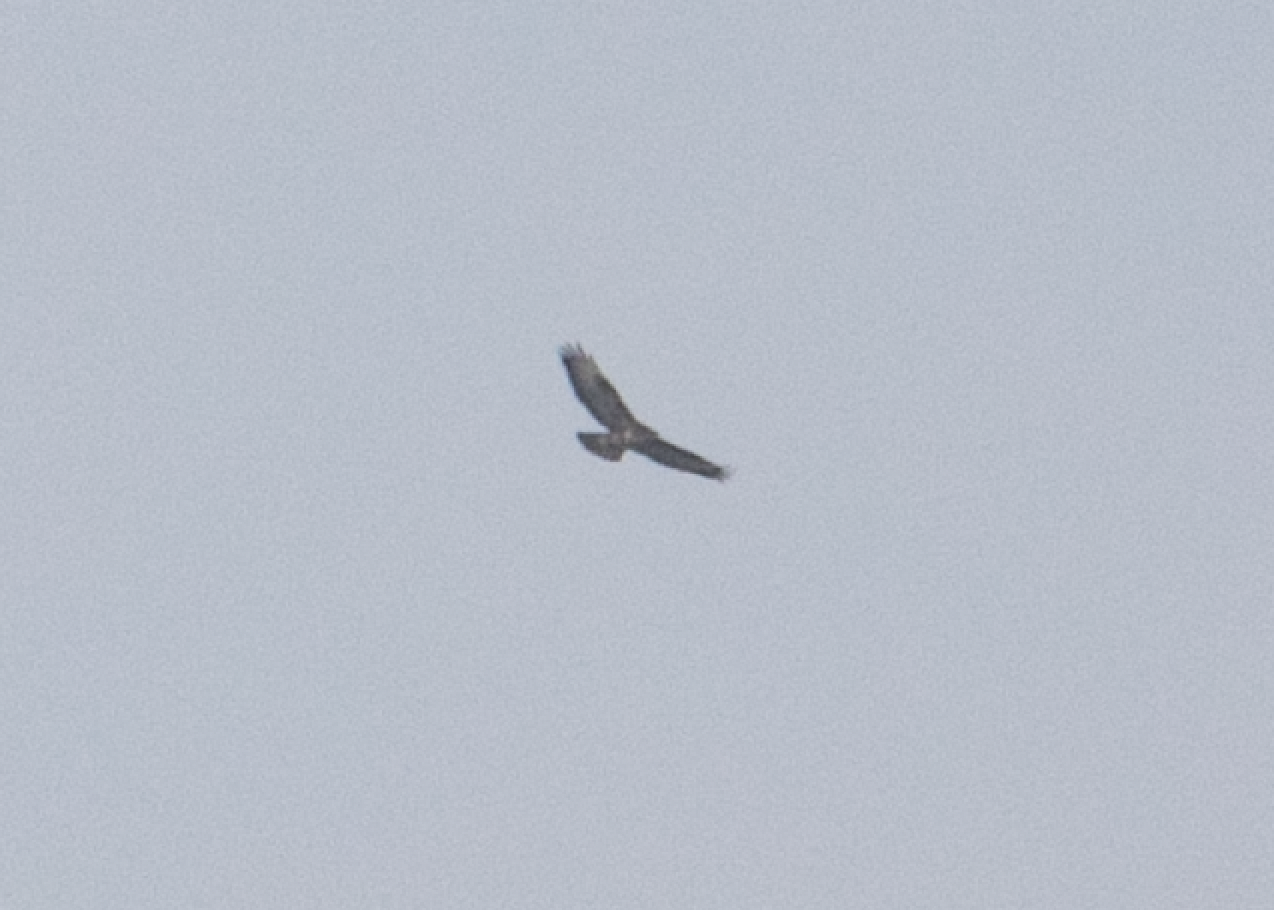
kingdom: Animalia
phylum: Chordata
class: Aves
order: Accipitriformes
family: Accipitridae
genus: Buteo
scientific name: Buteo buteo
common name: Common buzzard
